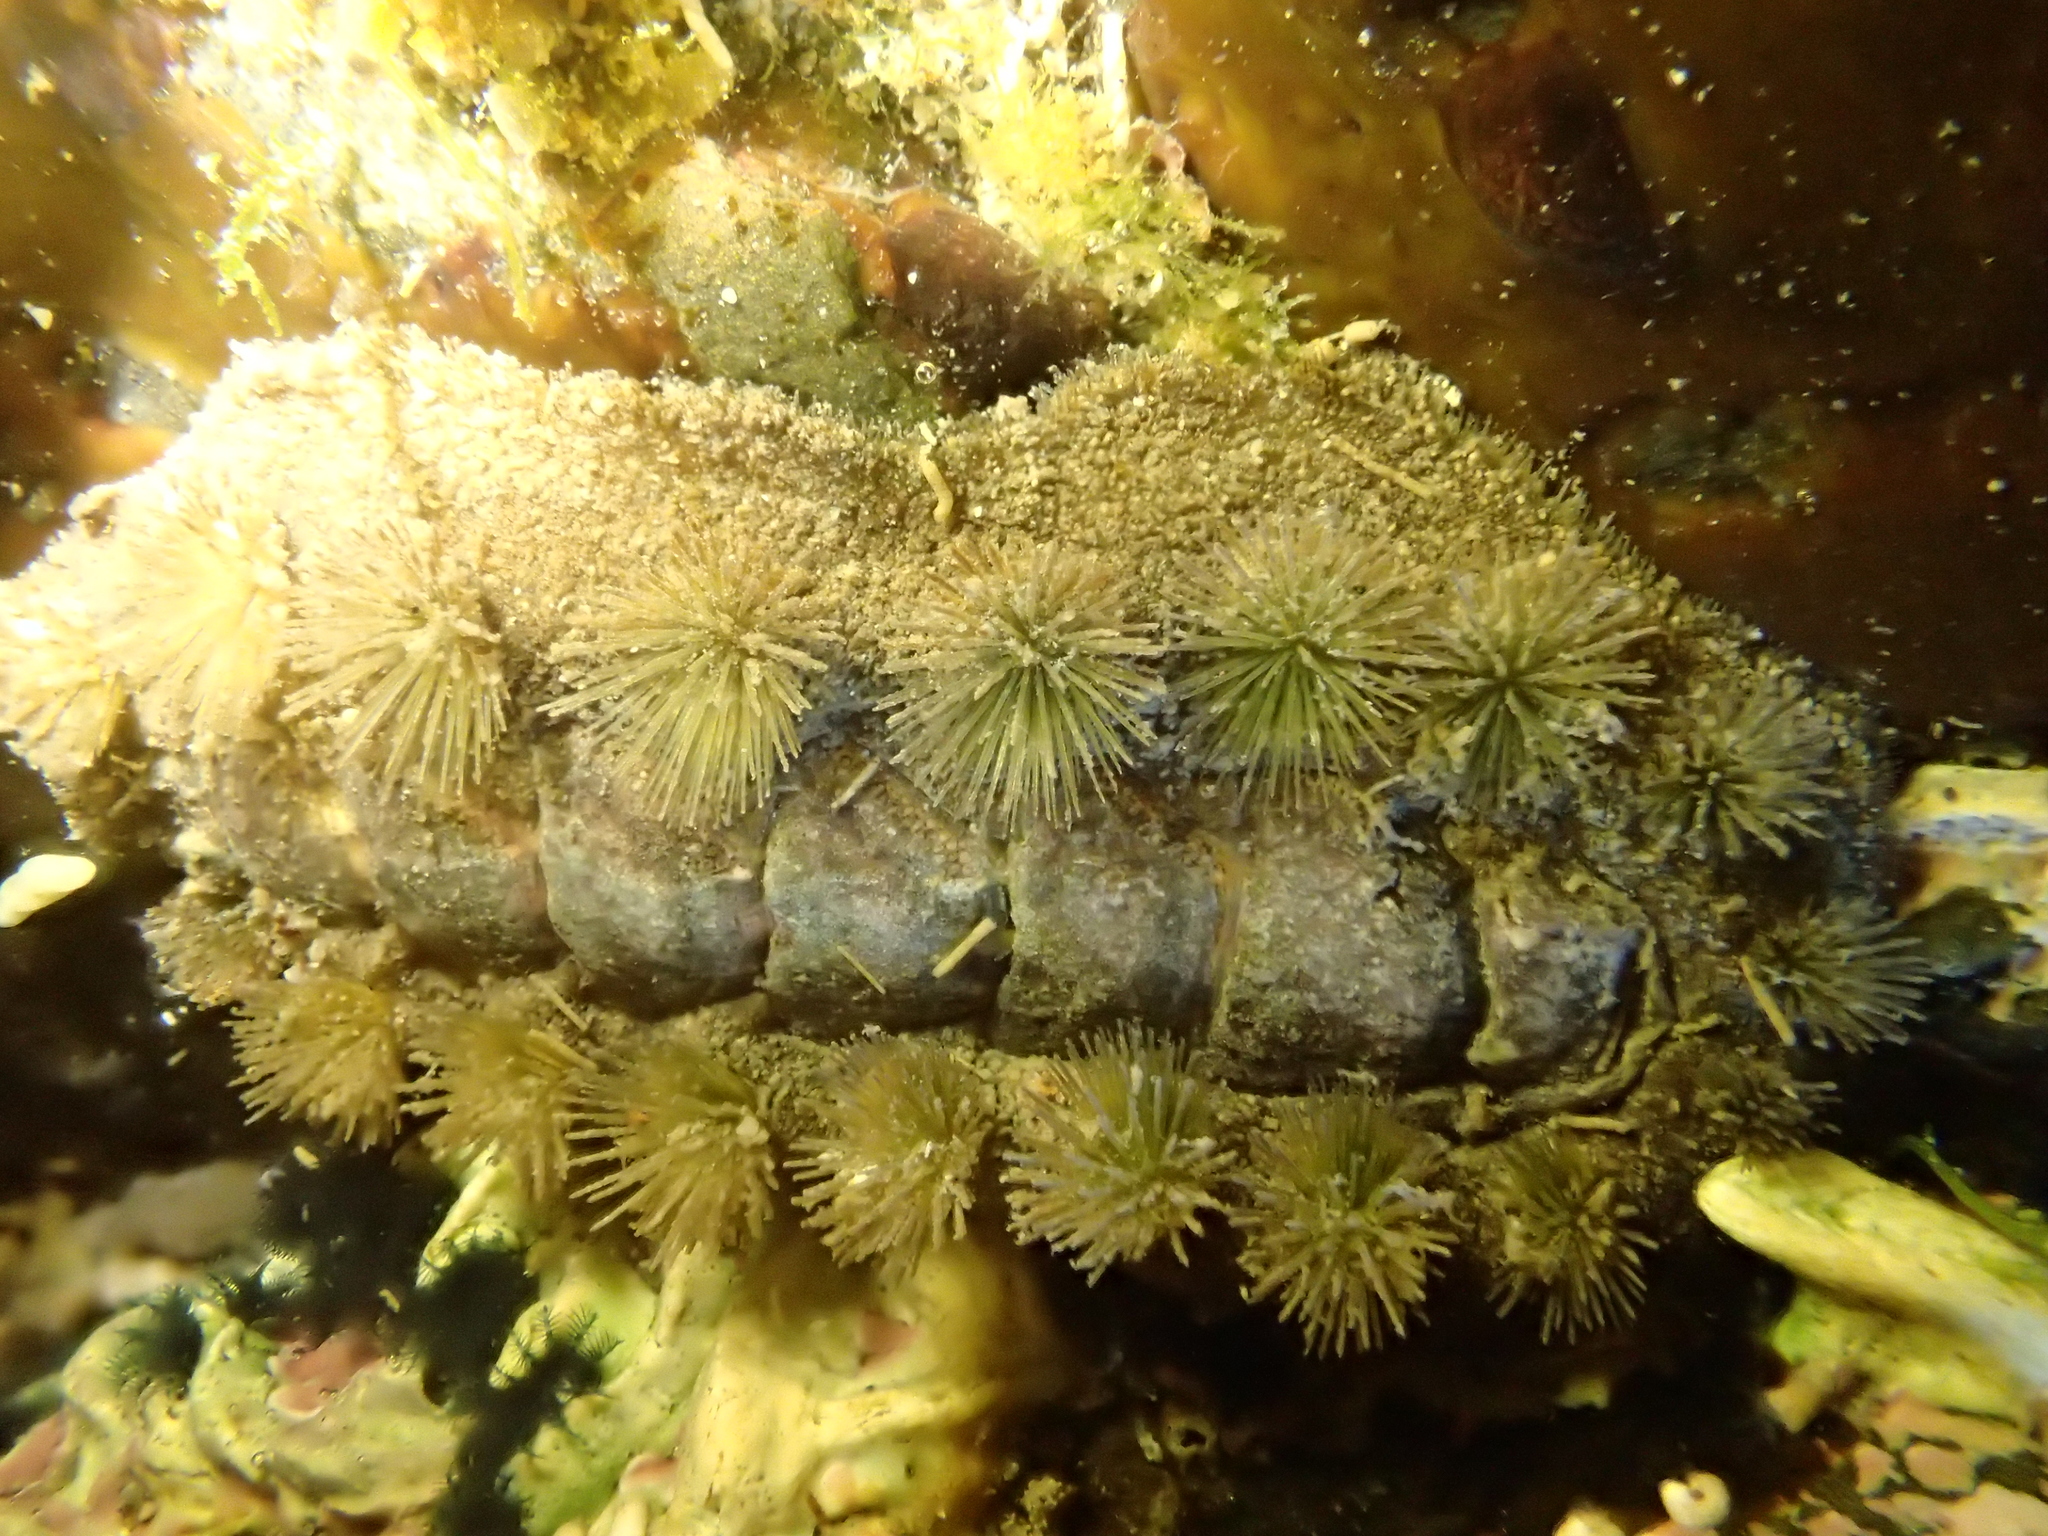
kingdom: Animalia
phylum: Mollusca
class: Polyplacophora
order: Chitonida
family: Acanthochitonidae
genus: Acanthochitona
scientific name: Acanthochitona zelandica
